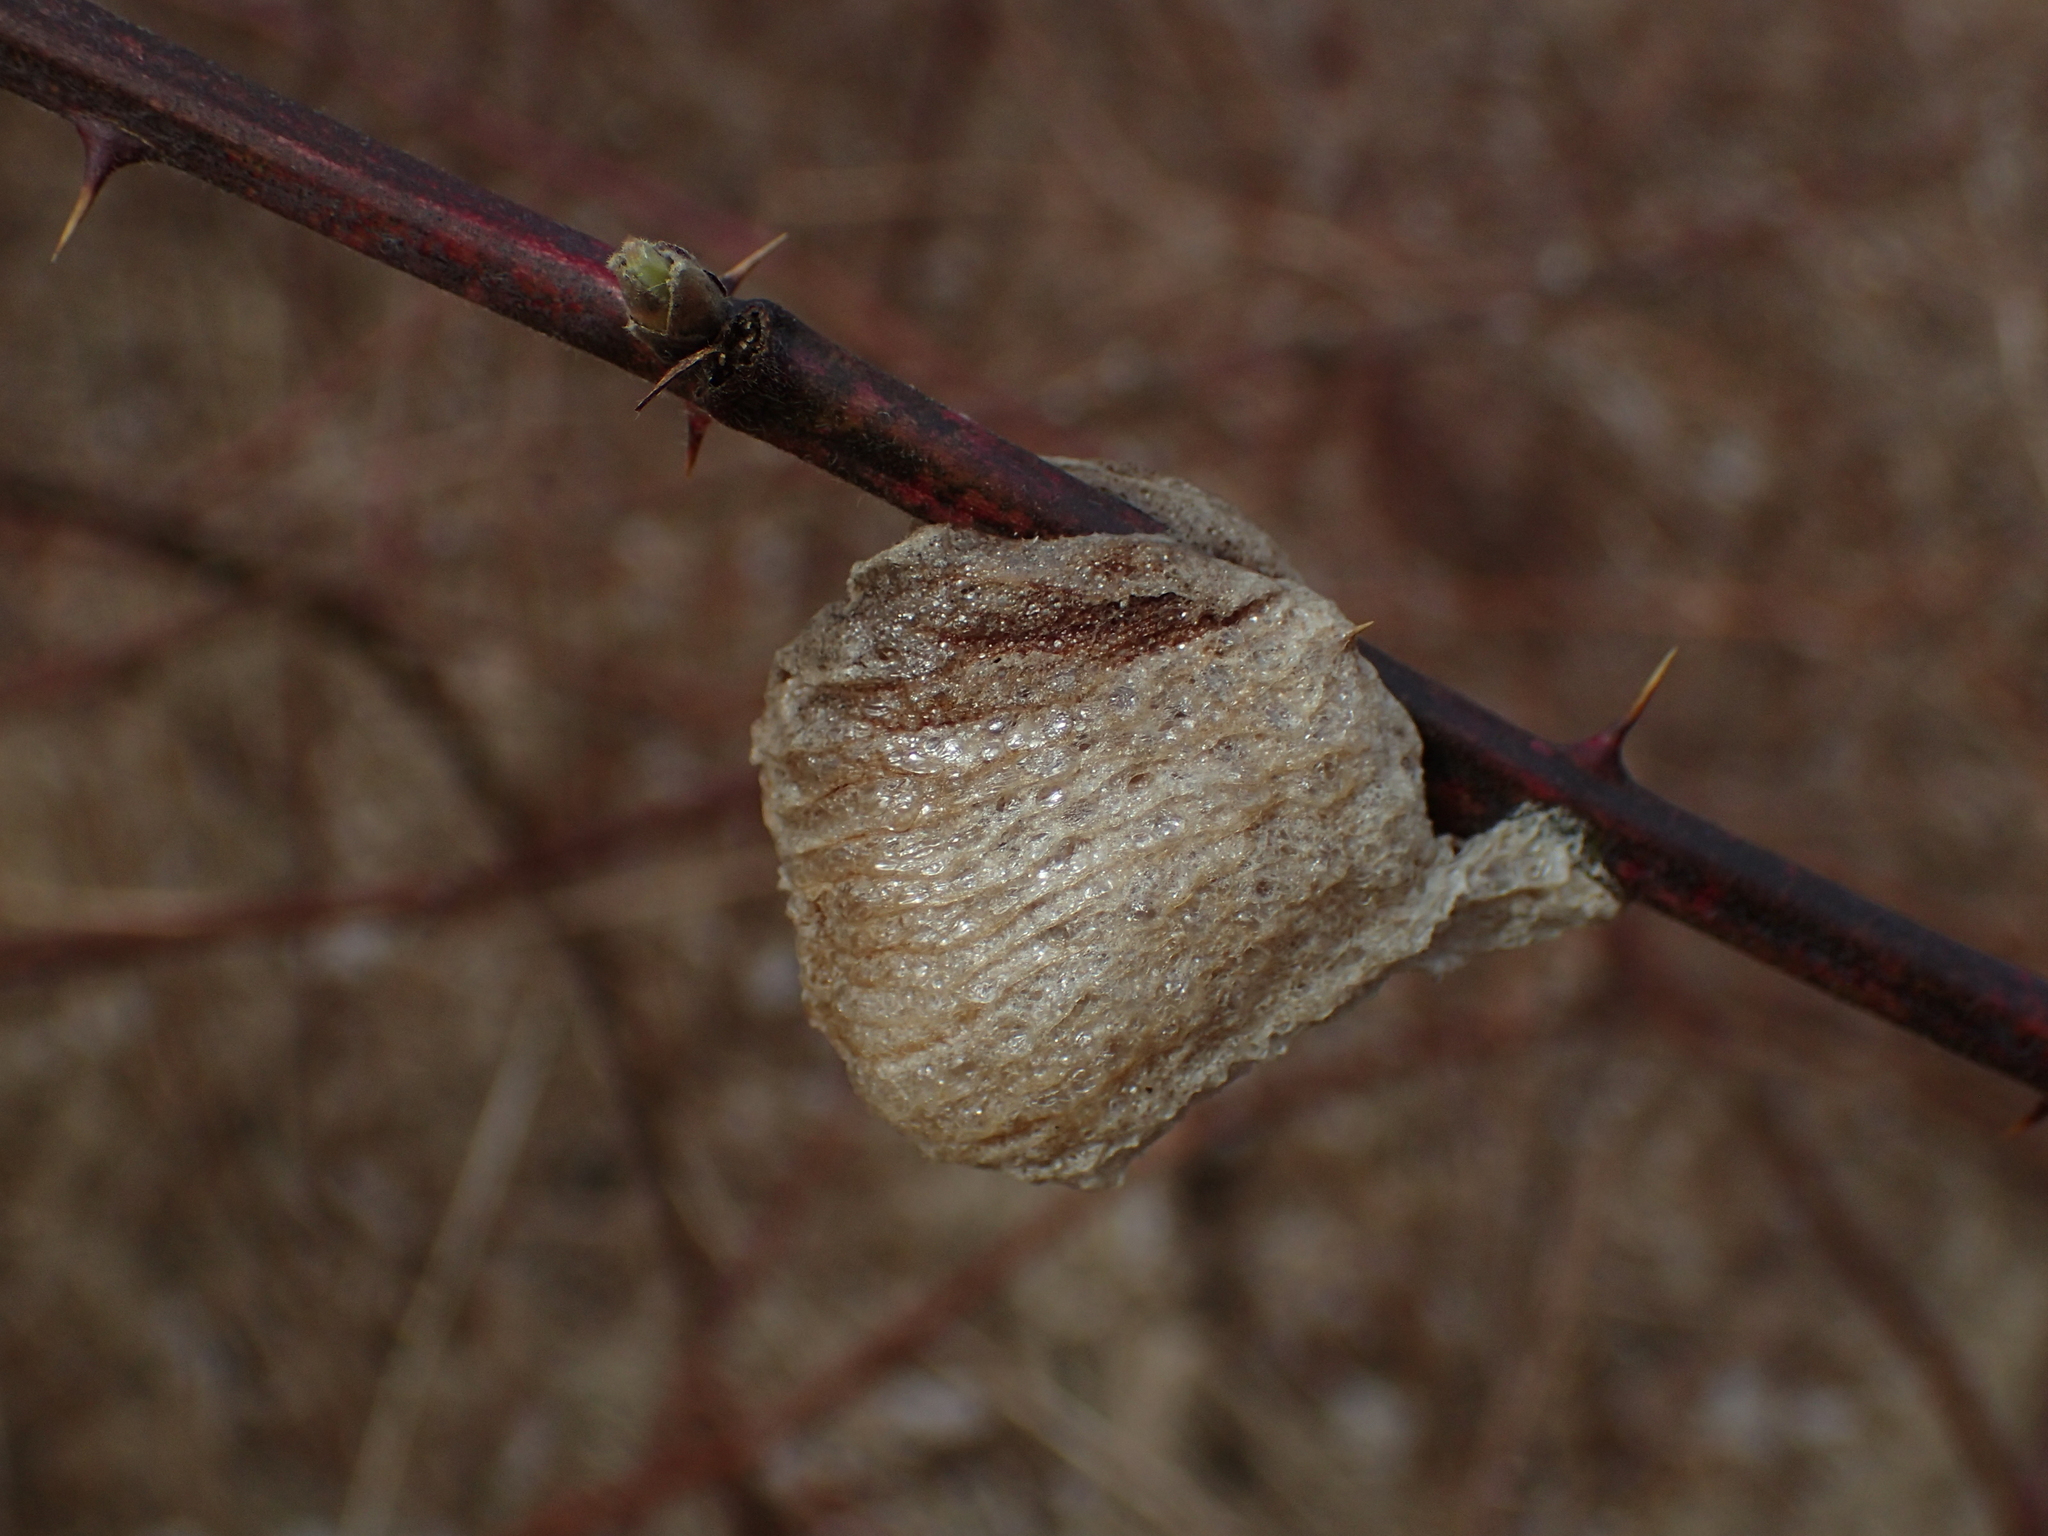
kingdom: Animalia
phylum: Arthropoda
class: Insecta
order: Mantodea
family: Mantidae
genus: Tenodera
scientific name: Tenodera sinensis
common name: Chinese mantis
